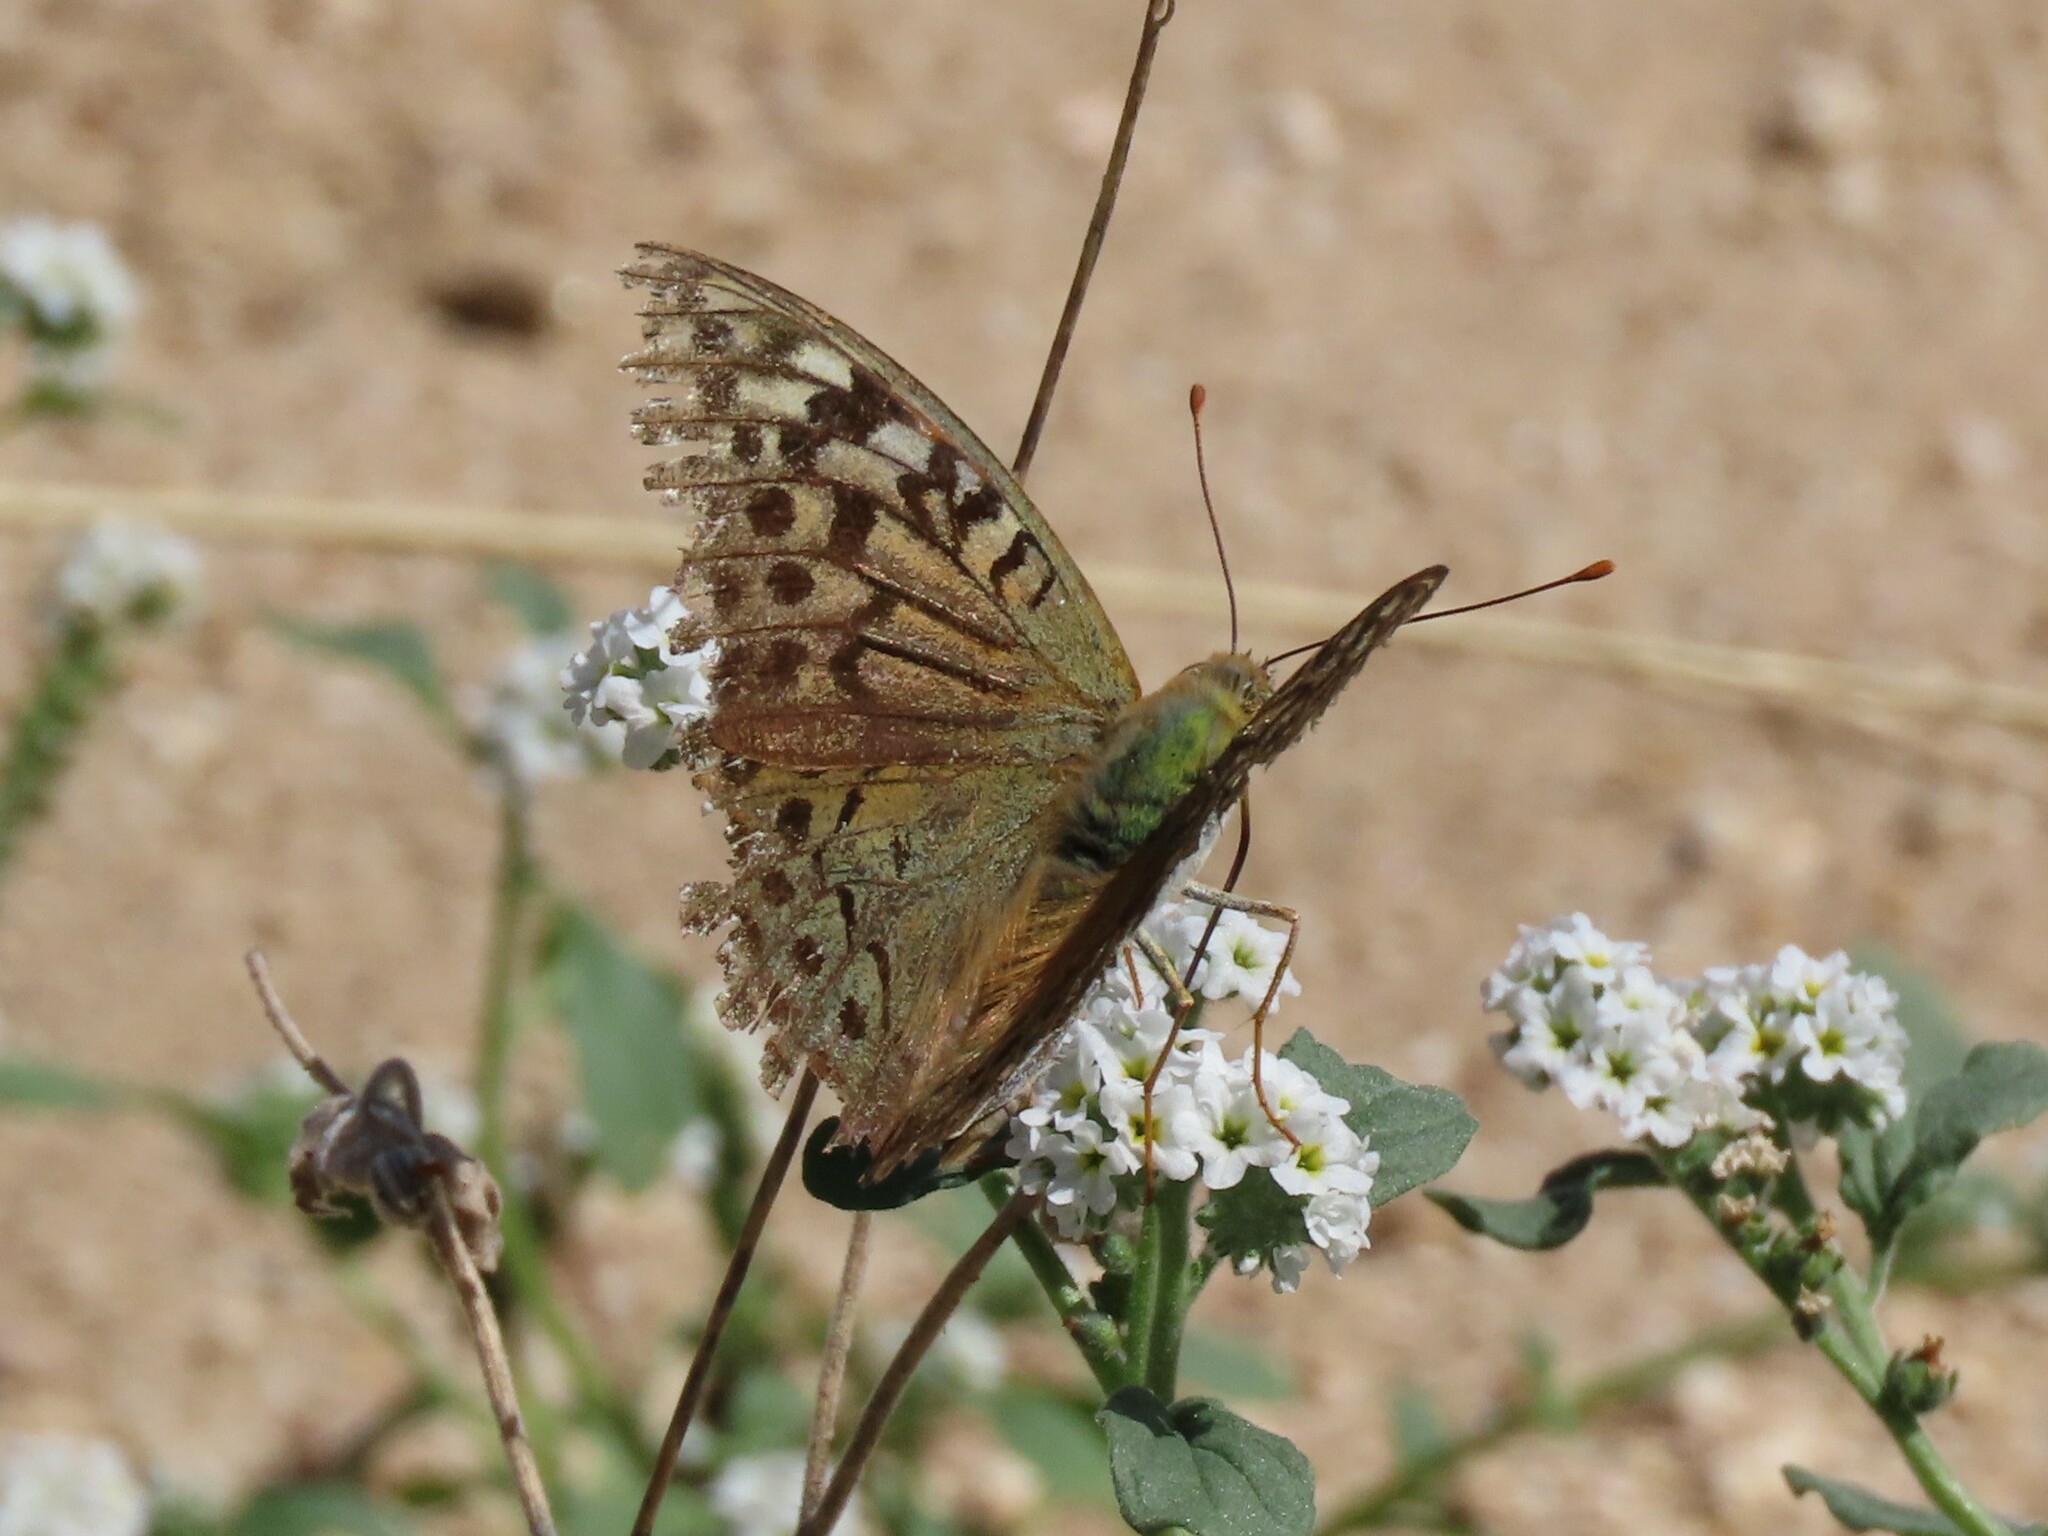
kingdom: Animalia
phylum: Arthropoda
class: Insecta
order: Lepidoptera
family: Nymphalidae
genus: Damora
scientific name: Damora pandora
